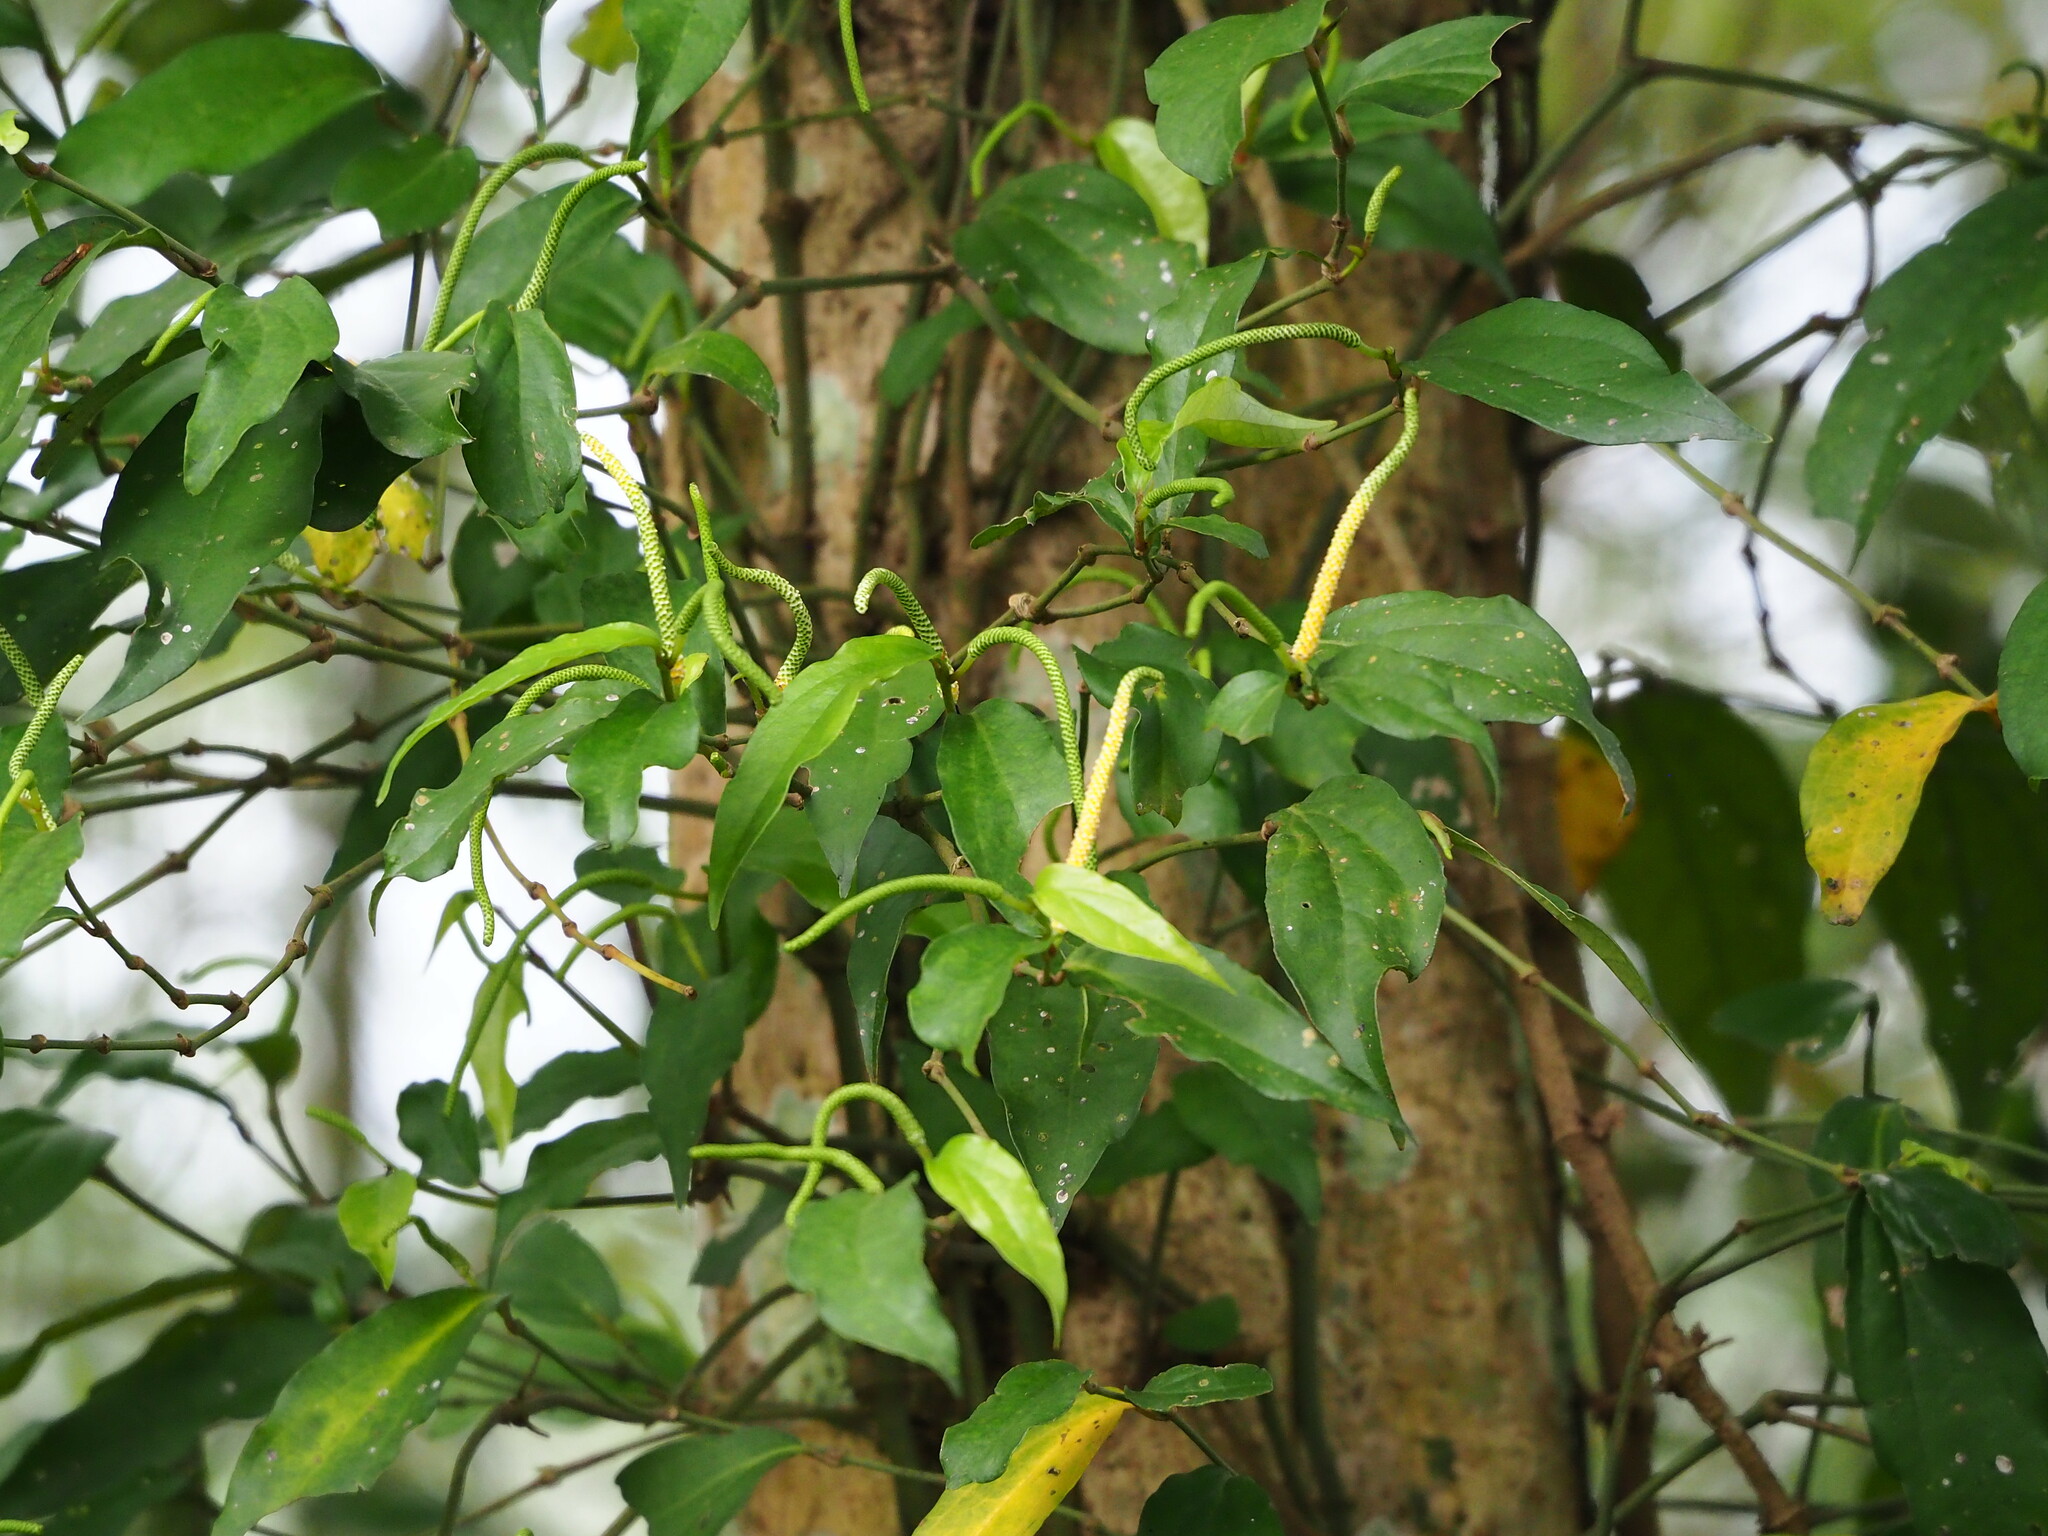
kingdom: Plantae
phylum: Tracheophyta
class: Magnoliopsida
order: Piperales
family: Piperaceae
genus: Piper
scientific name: Piper kadsura
